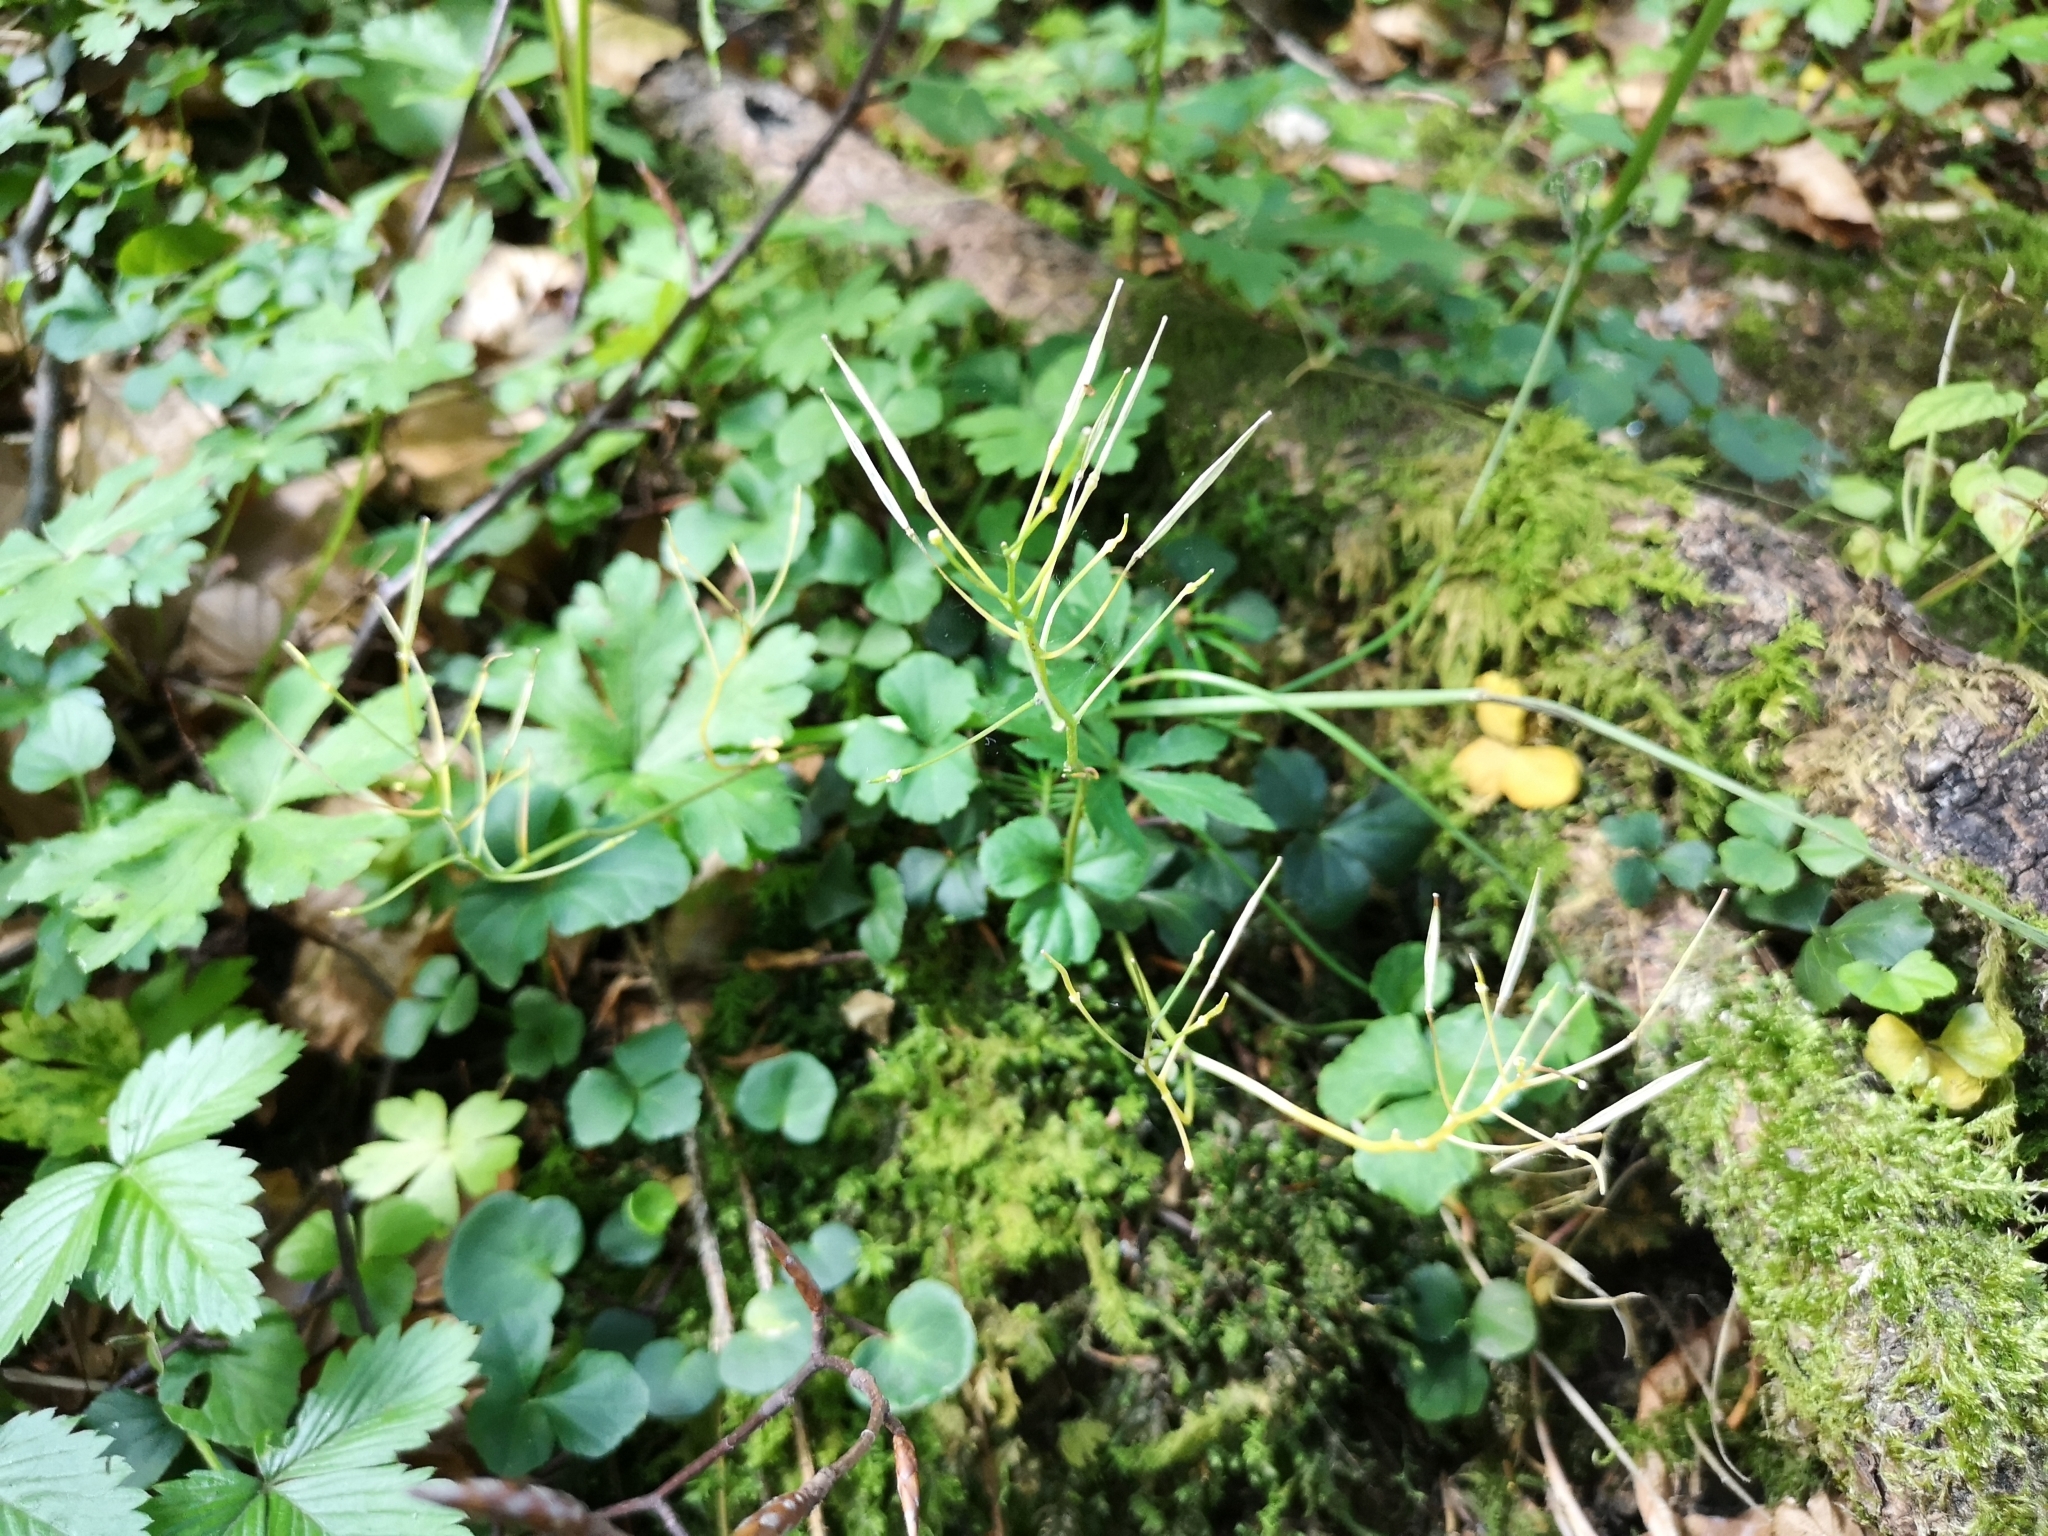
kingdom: Plantae
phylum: Tracheophyta
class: Magnoliopsida
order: Brassicales
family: Brassicaceae
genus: Cardamine
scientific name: Cardamine trifolia
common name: Trefoil cress
